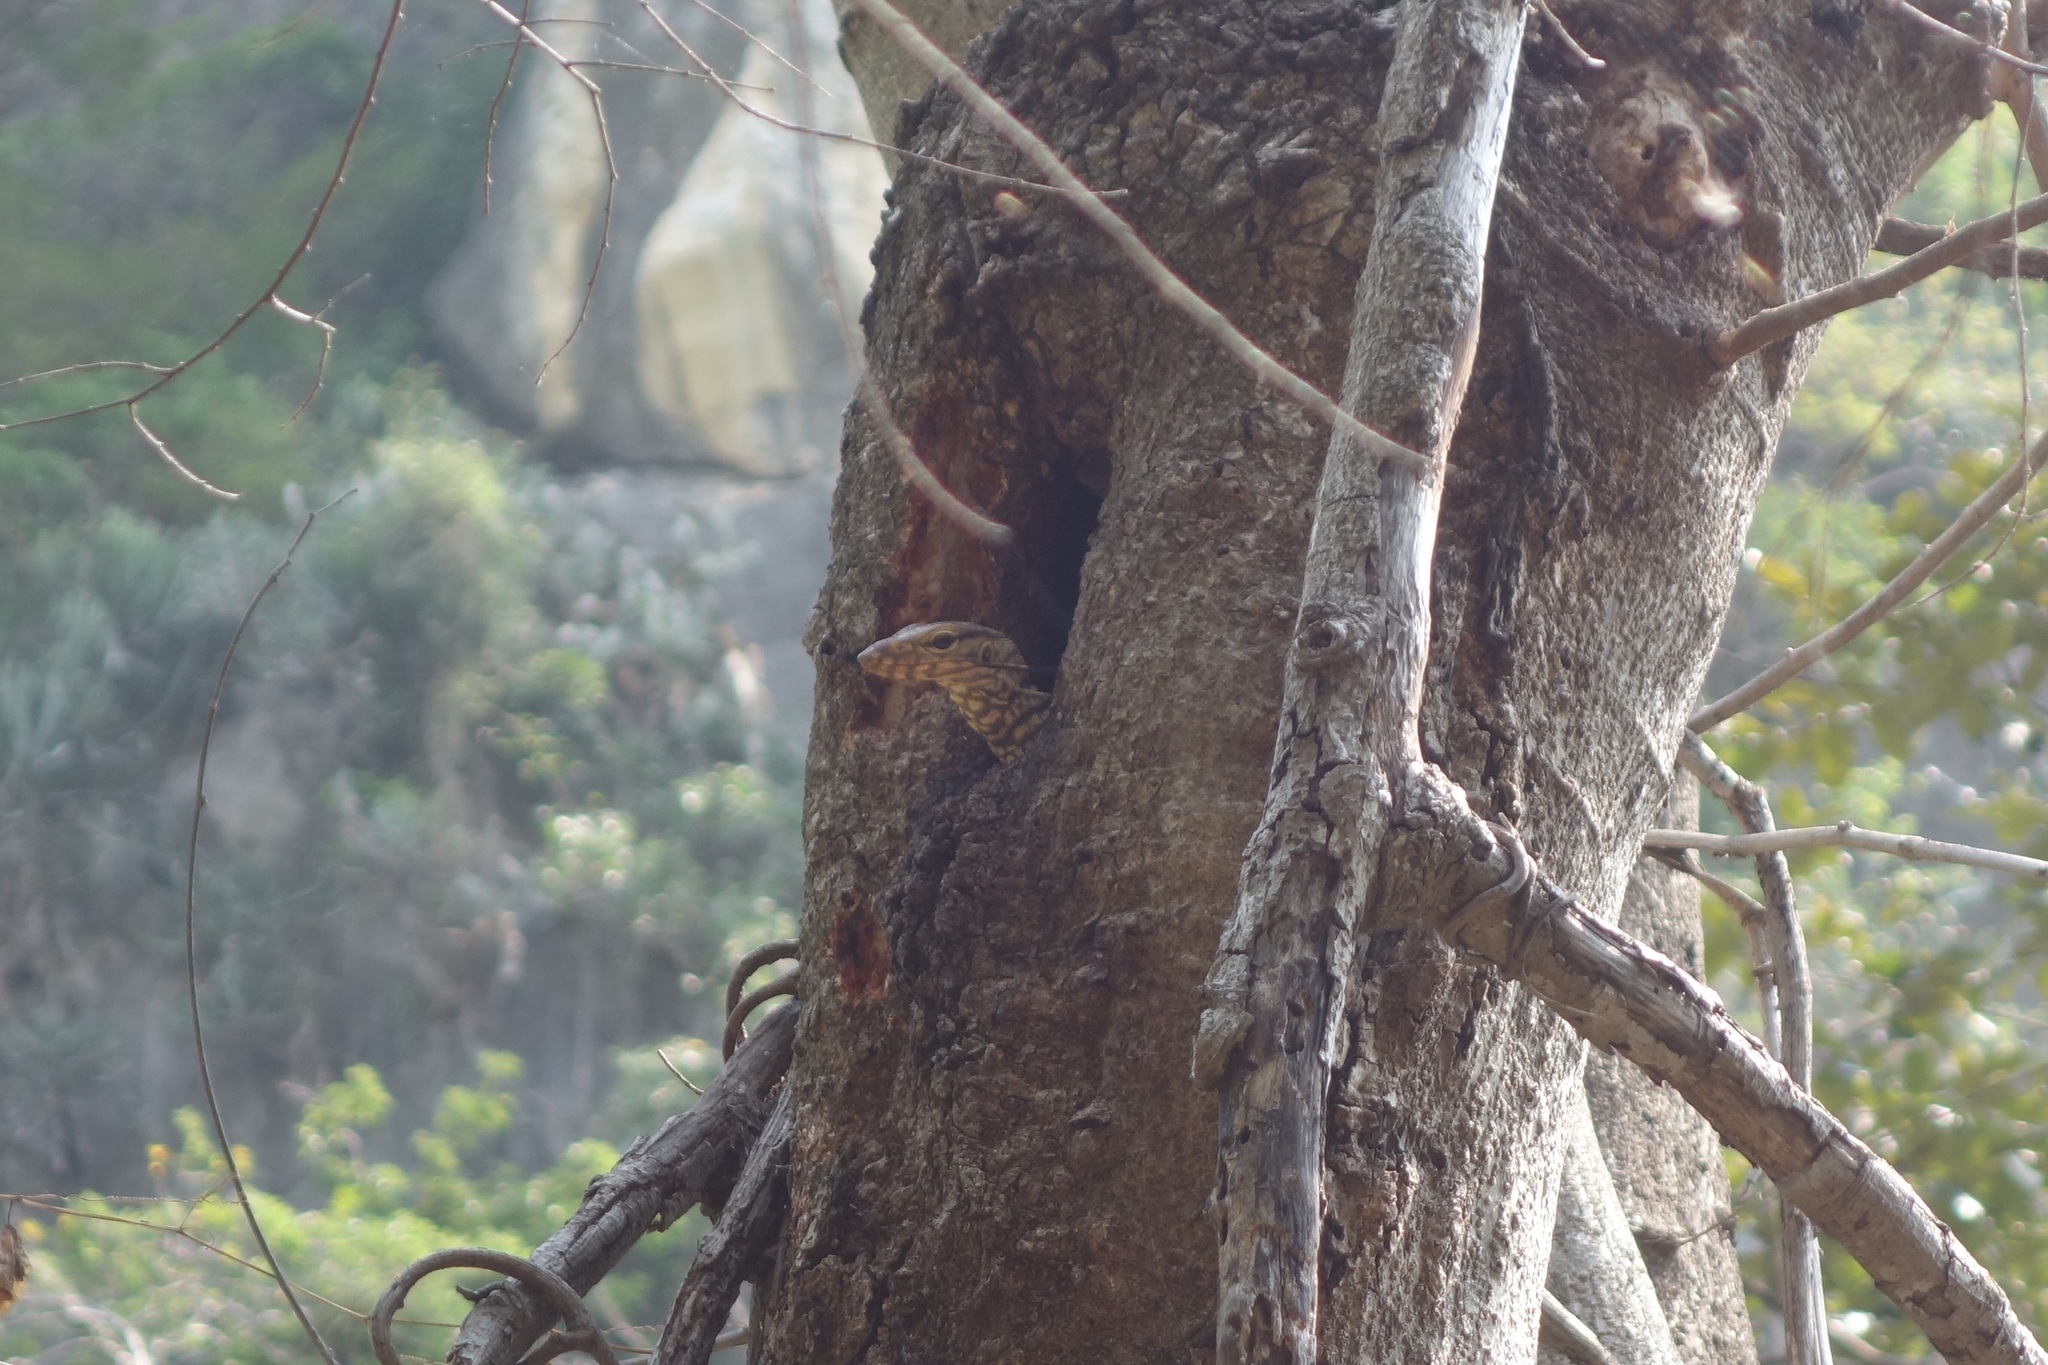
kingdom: Animalia
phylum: Chordata
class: Squamata
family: Varanidae
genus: Varanus
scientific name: Varanus nebulosus
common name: Clouded monitor
